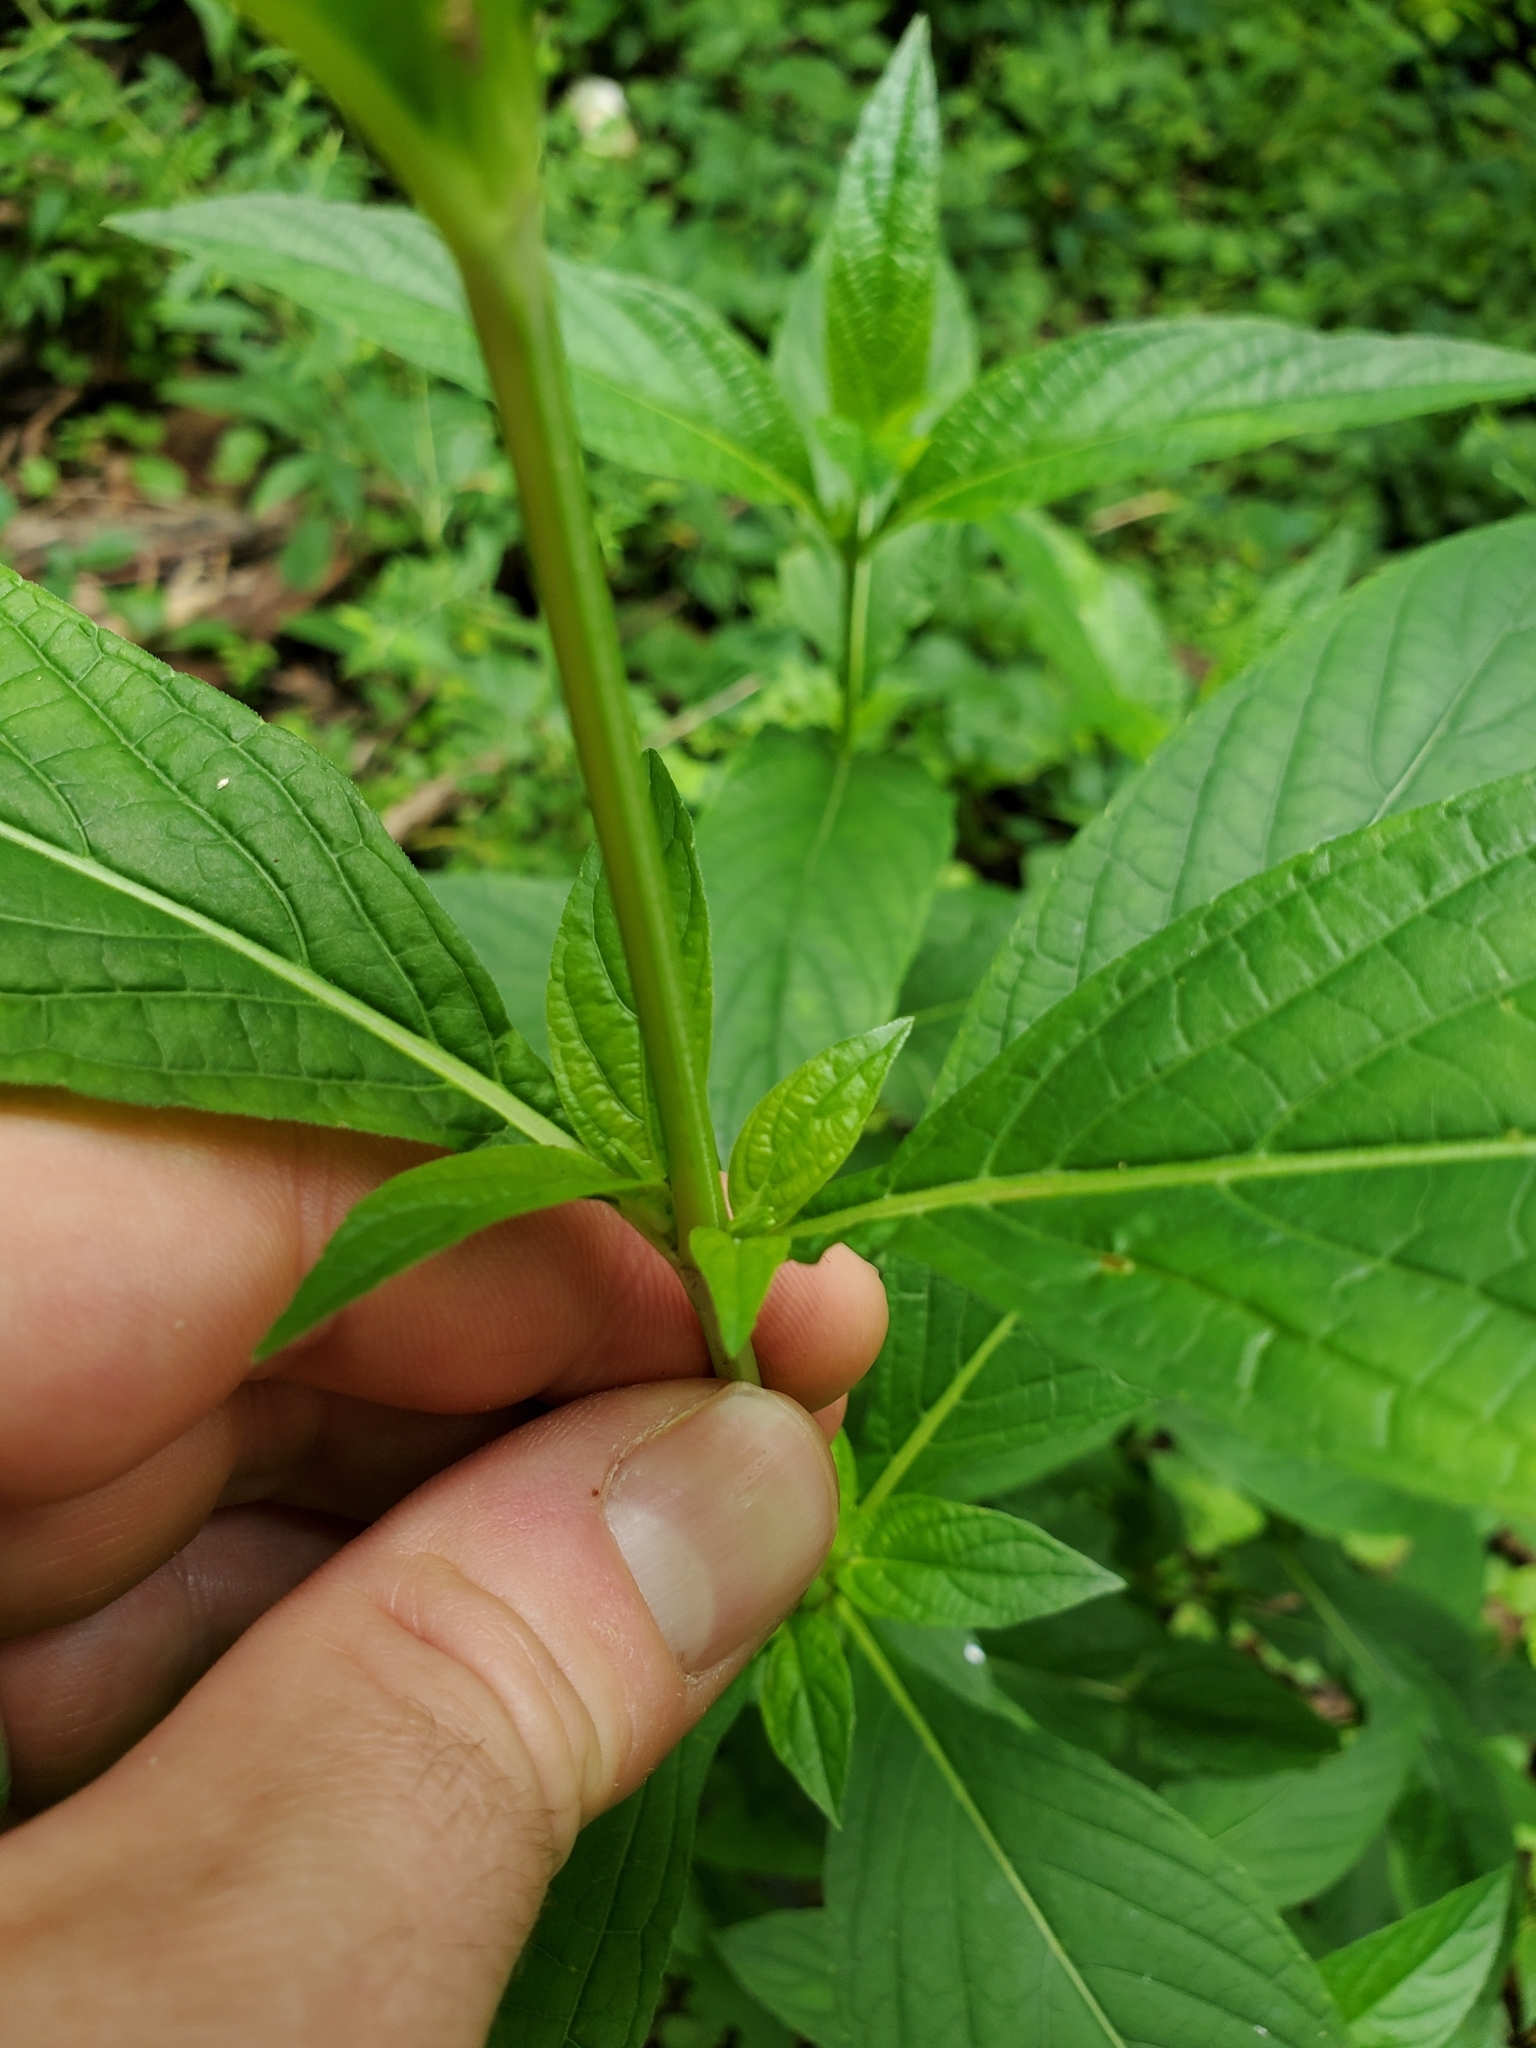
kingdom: Plantae
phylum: Tracheophyta
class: Magnoliopsida
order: Lamiales
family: Acanthaceae
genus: Ruellia
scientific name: Ruellia strepens
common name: Limestone wild petunia
